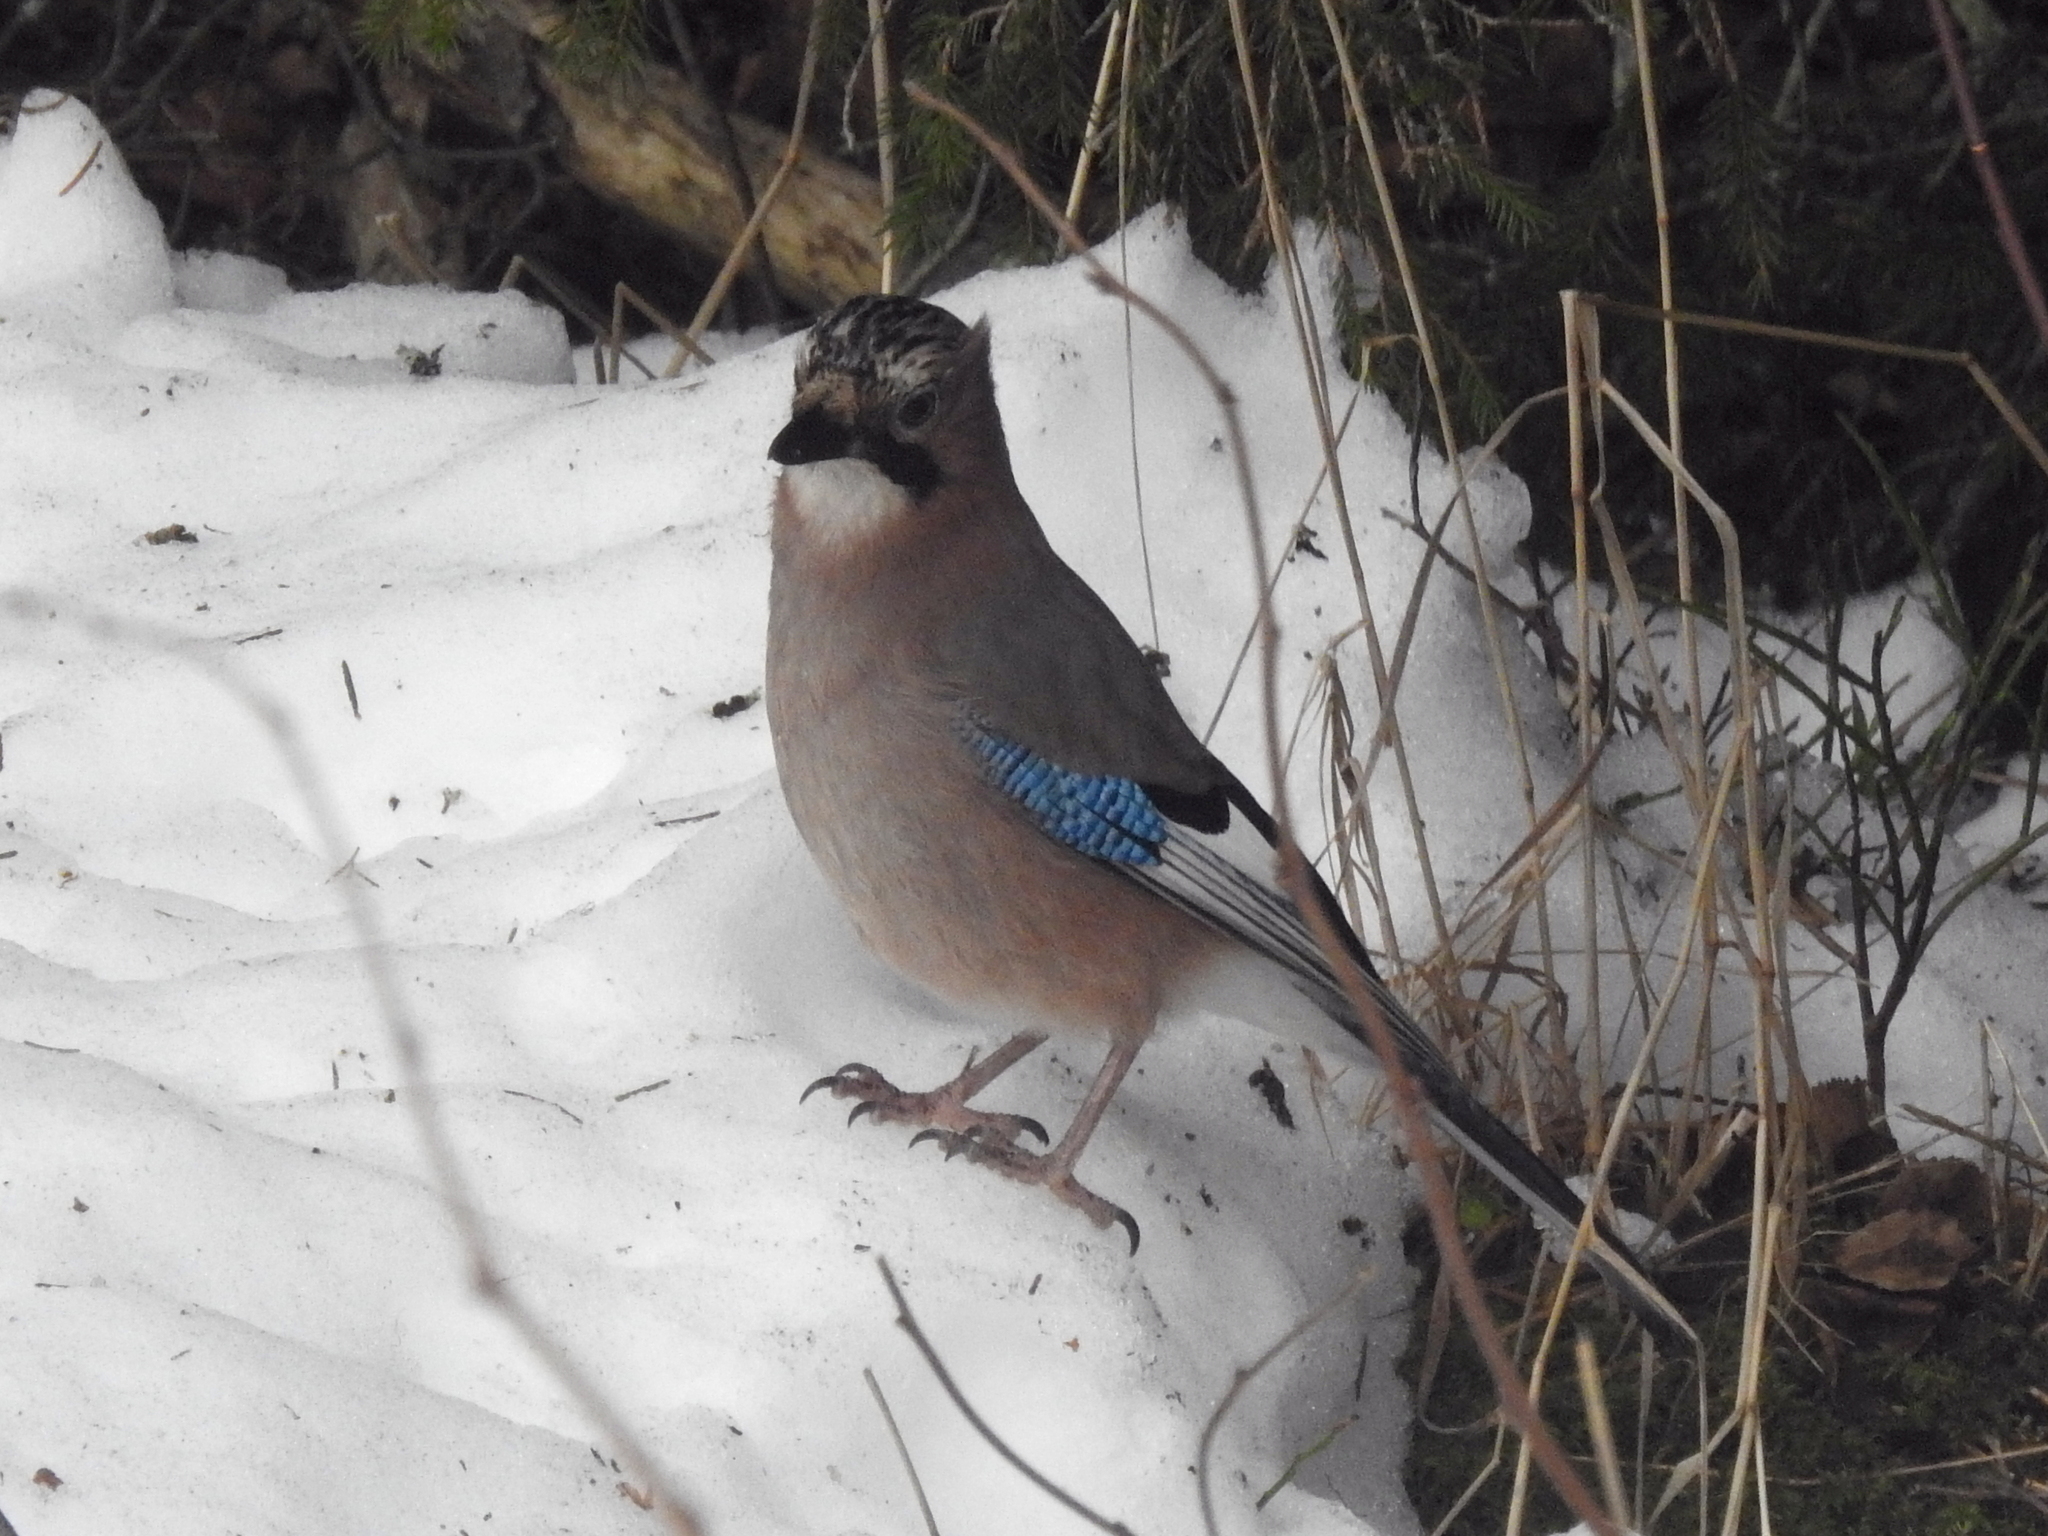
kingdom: Animalia
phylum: Chordata
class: Aves
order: Passeriformes
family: Corvidae
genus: Garrulus
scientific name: Garrulus glandarius
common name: Eurasian jay
